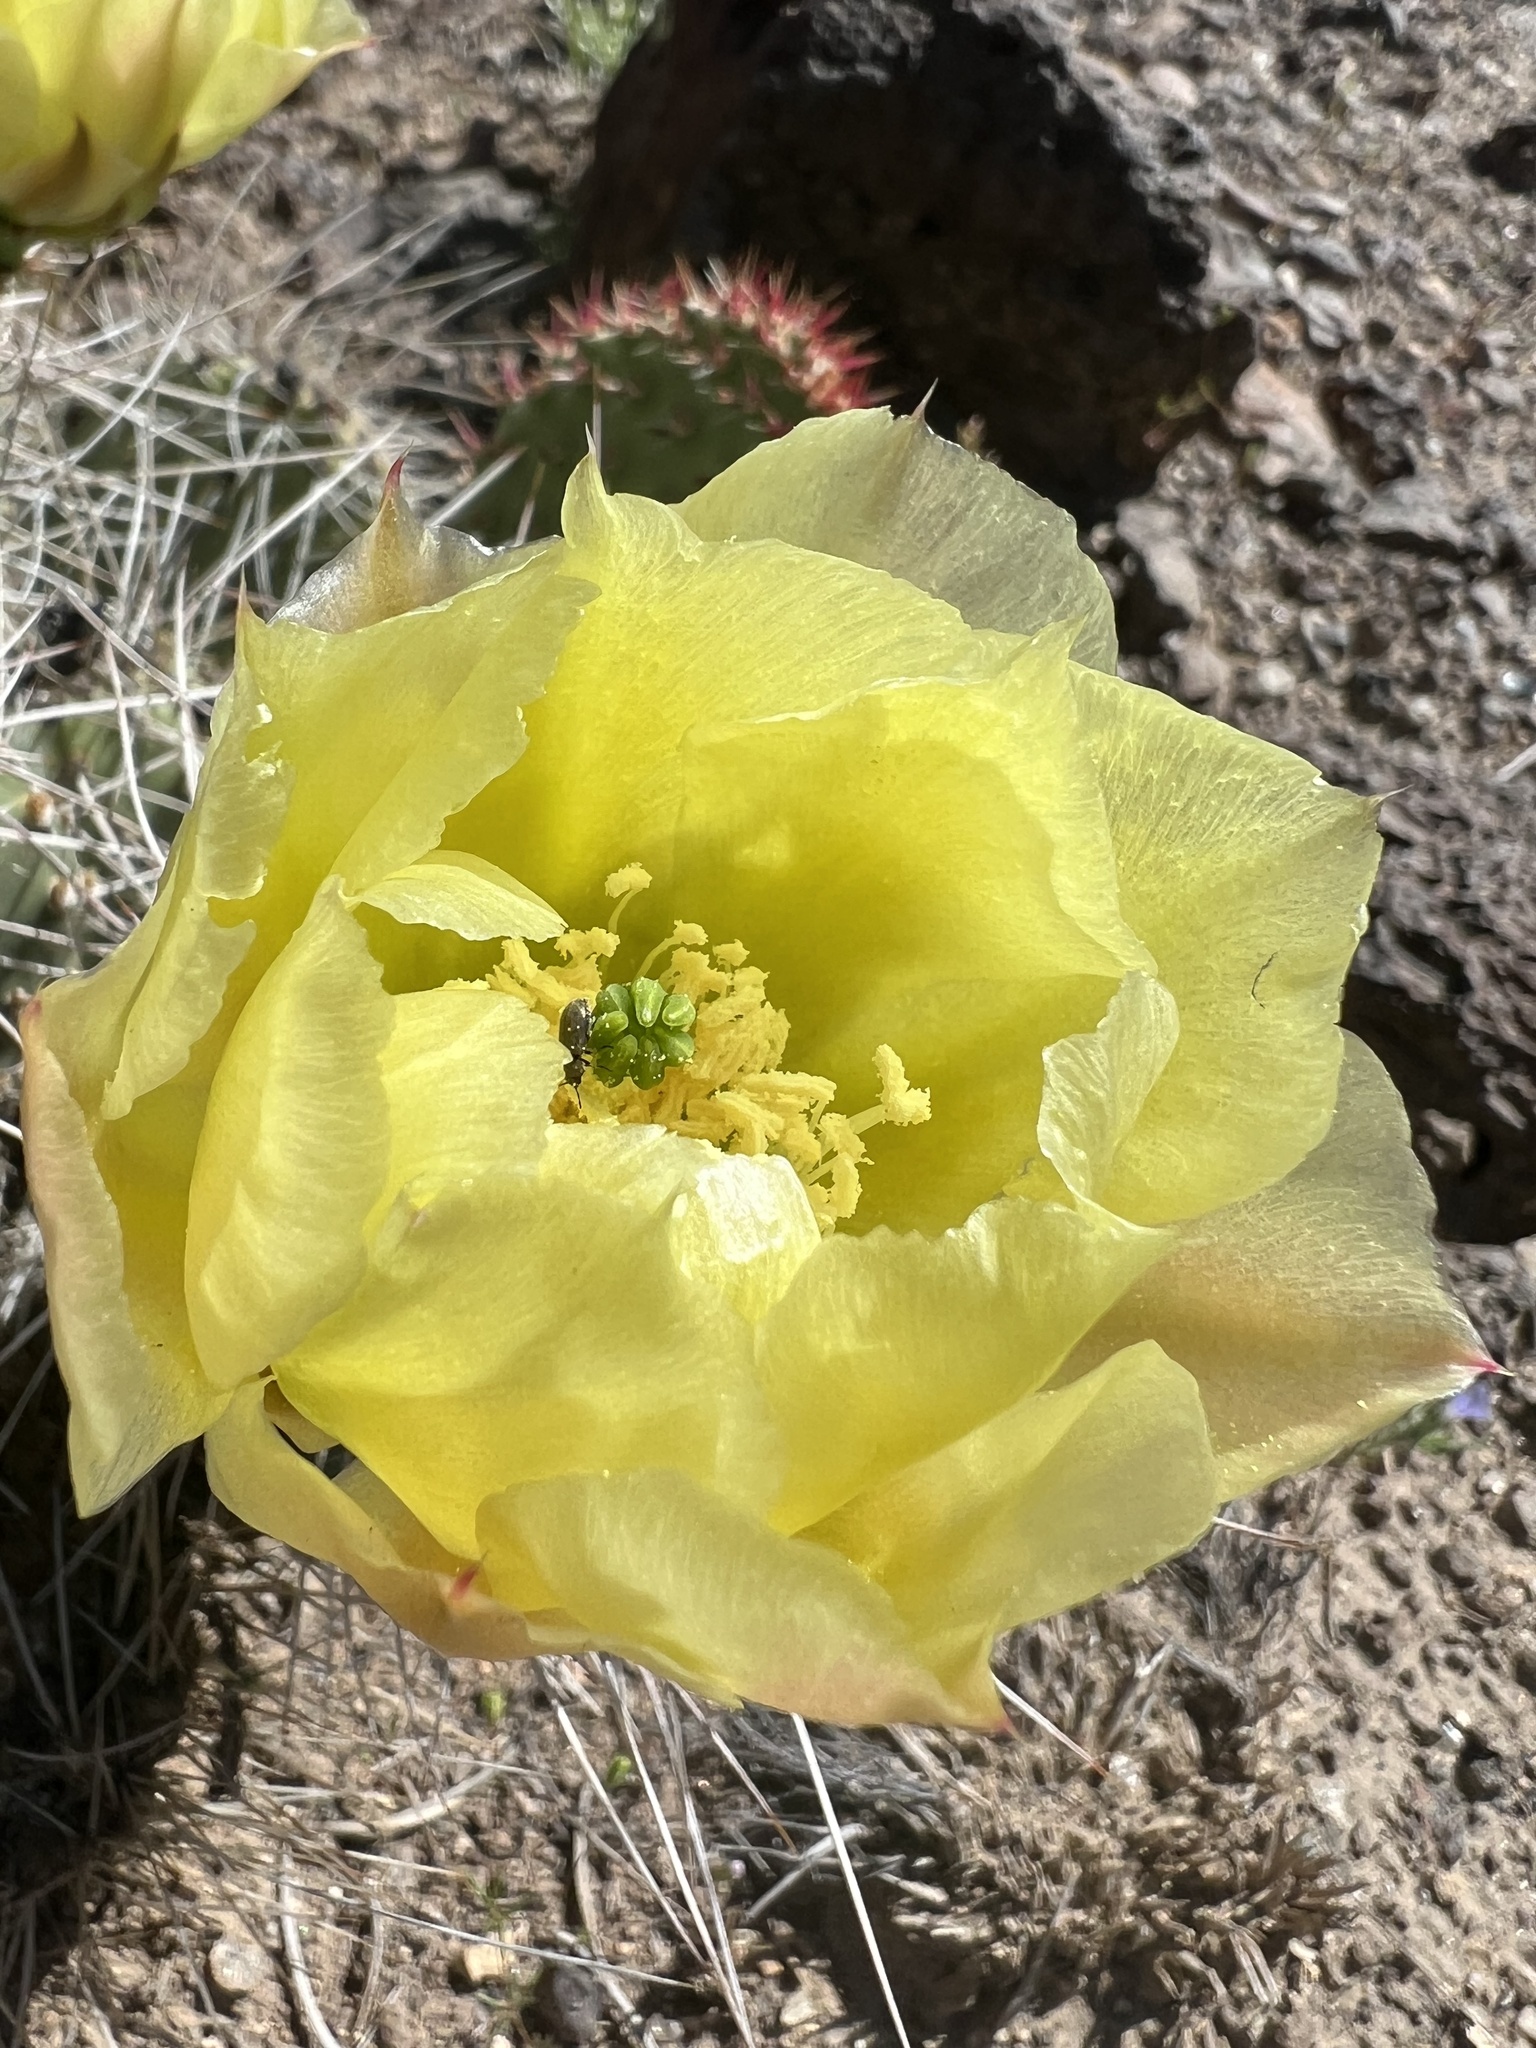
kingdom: Plantae
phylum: Tracheophyta
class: Magnoliopsida
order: Caryophyllales
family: Cactaceae
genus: Opuntia
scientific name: Opuntia polyacantha
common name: Plains prickly-pear
